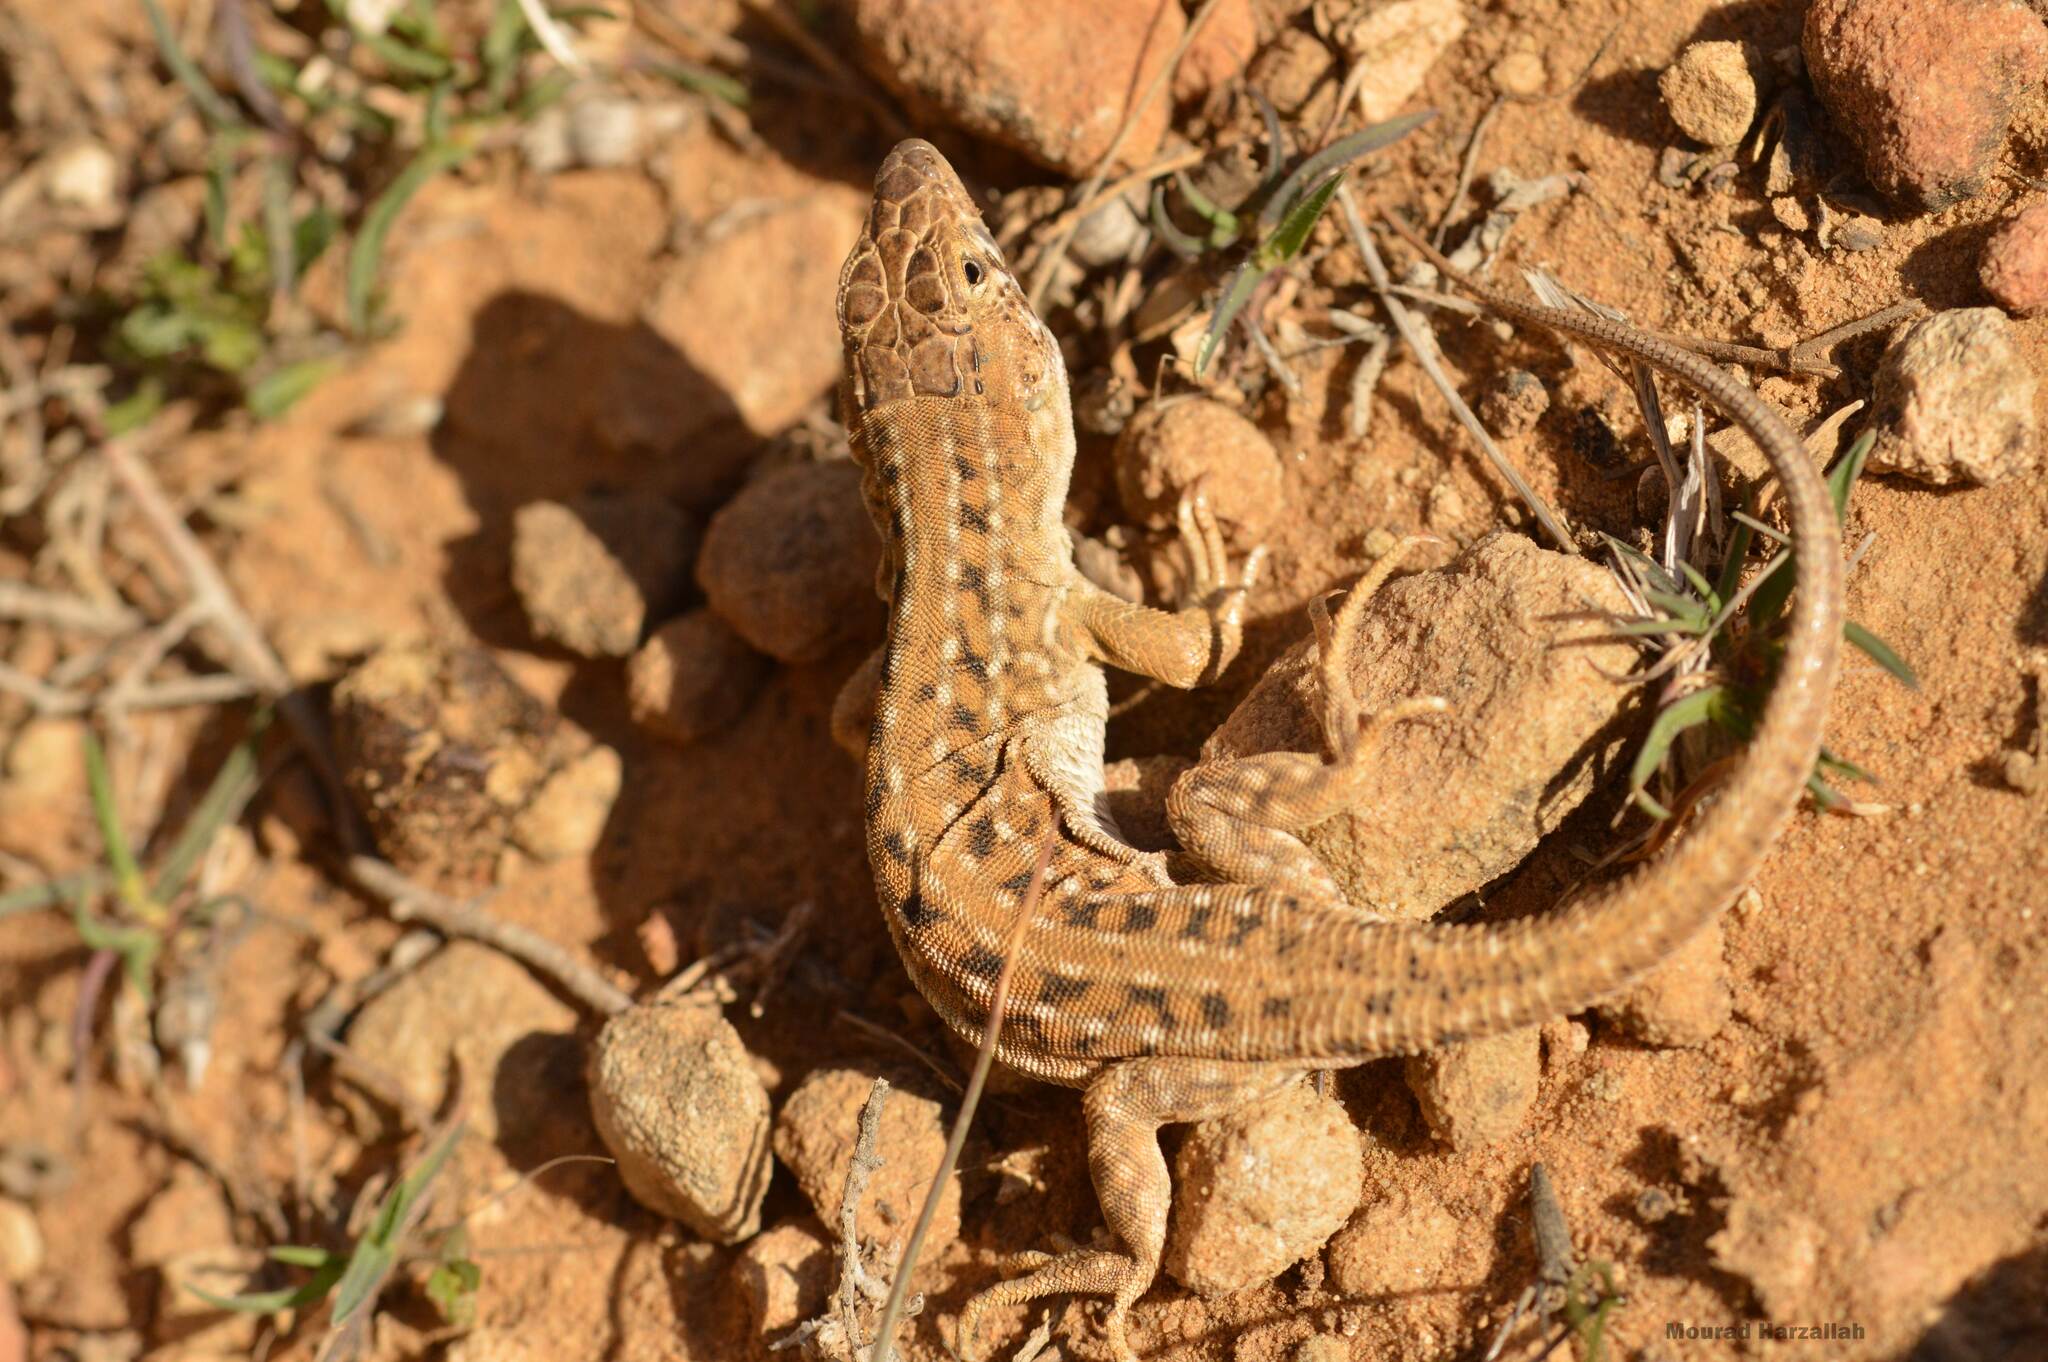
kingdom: Animalia
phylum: Chordata
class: Squamata
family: Lacertidae
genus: Acanthodactylus
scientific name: Acanthodactylus erythrurus
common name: Spiny-footed lizard
